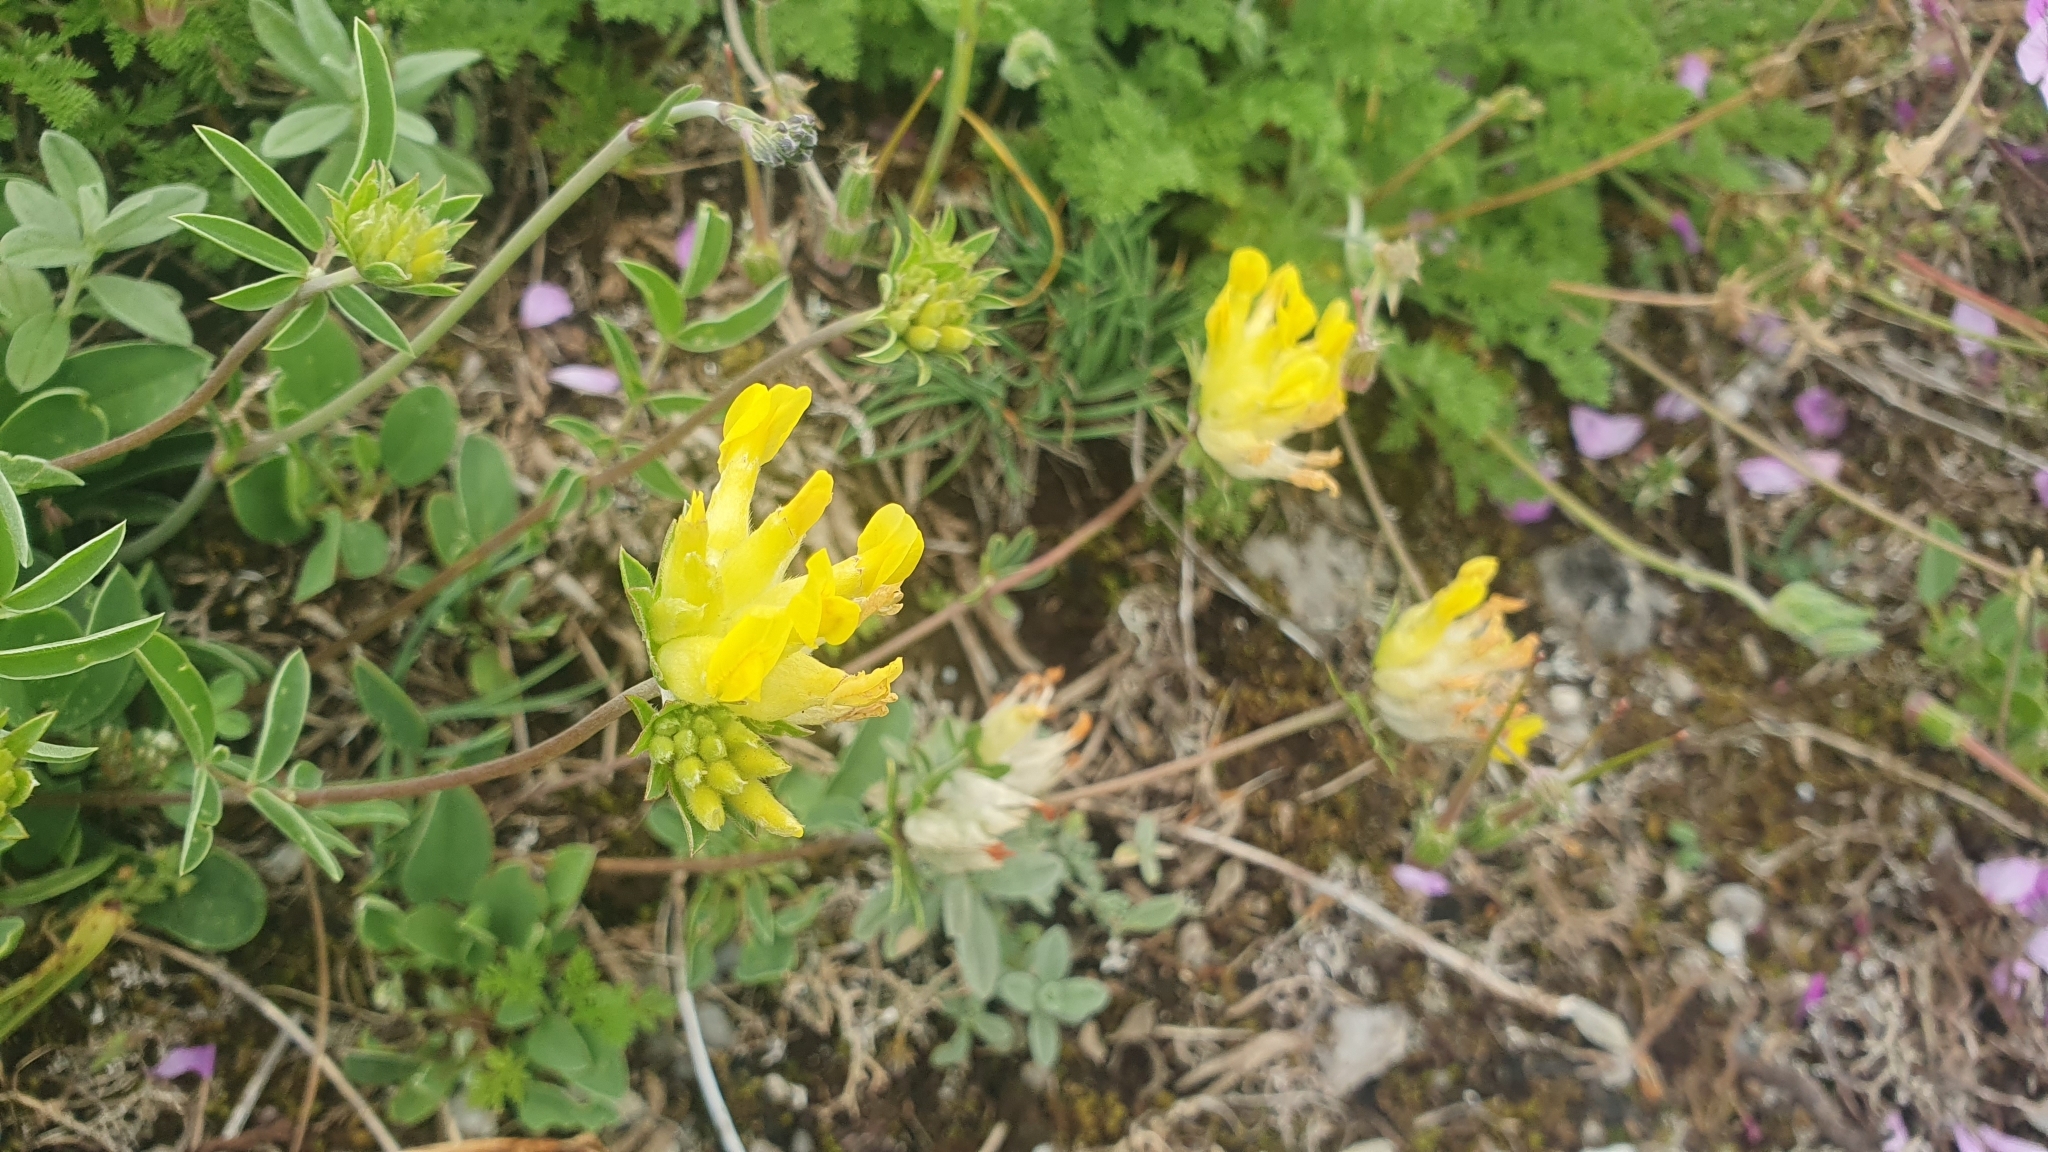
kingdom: Plantae
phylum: Tracheophyta
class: Magnoliopsida
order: Fabales
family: Fabaceae
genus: Anthyllis
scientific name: Anthyllis vulneraria
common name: Kidney vetch
